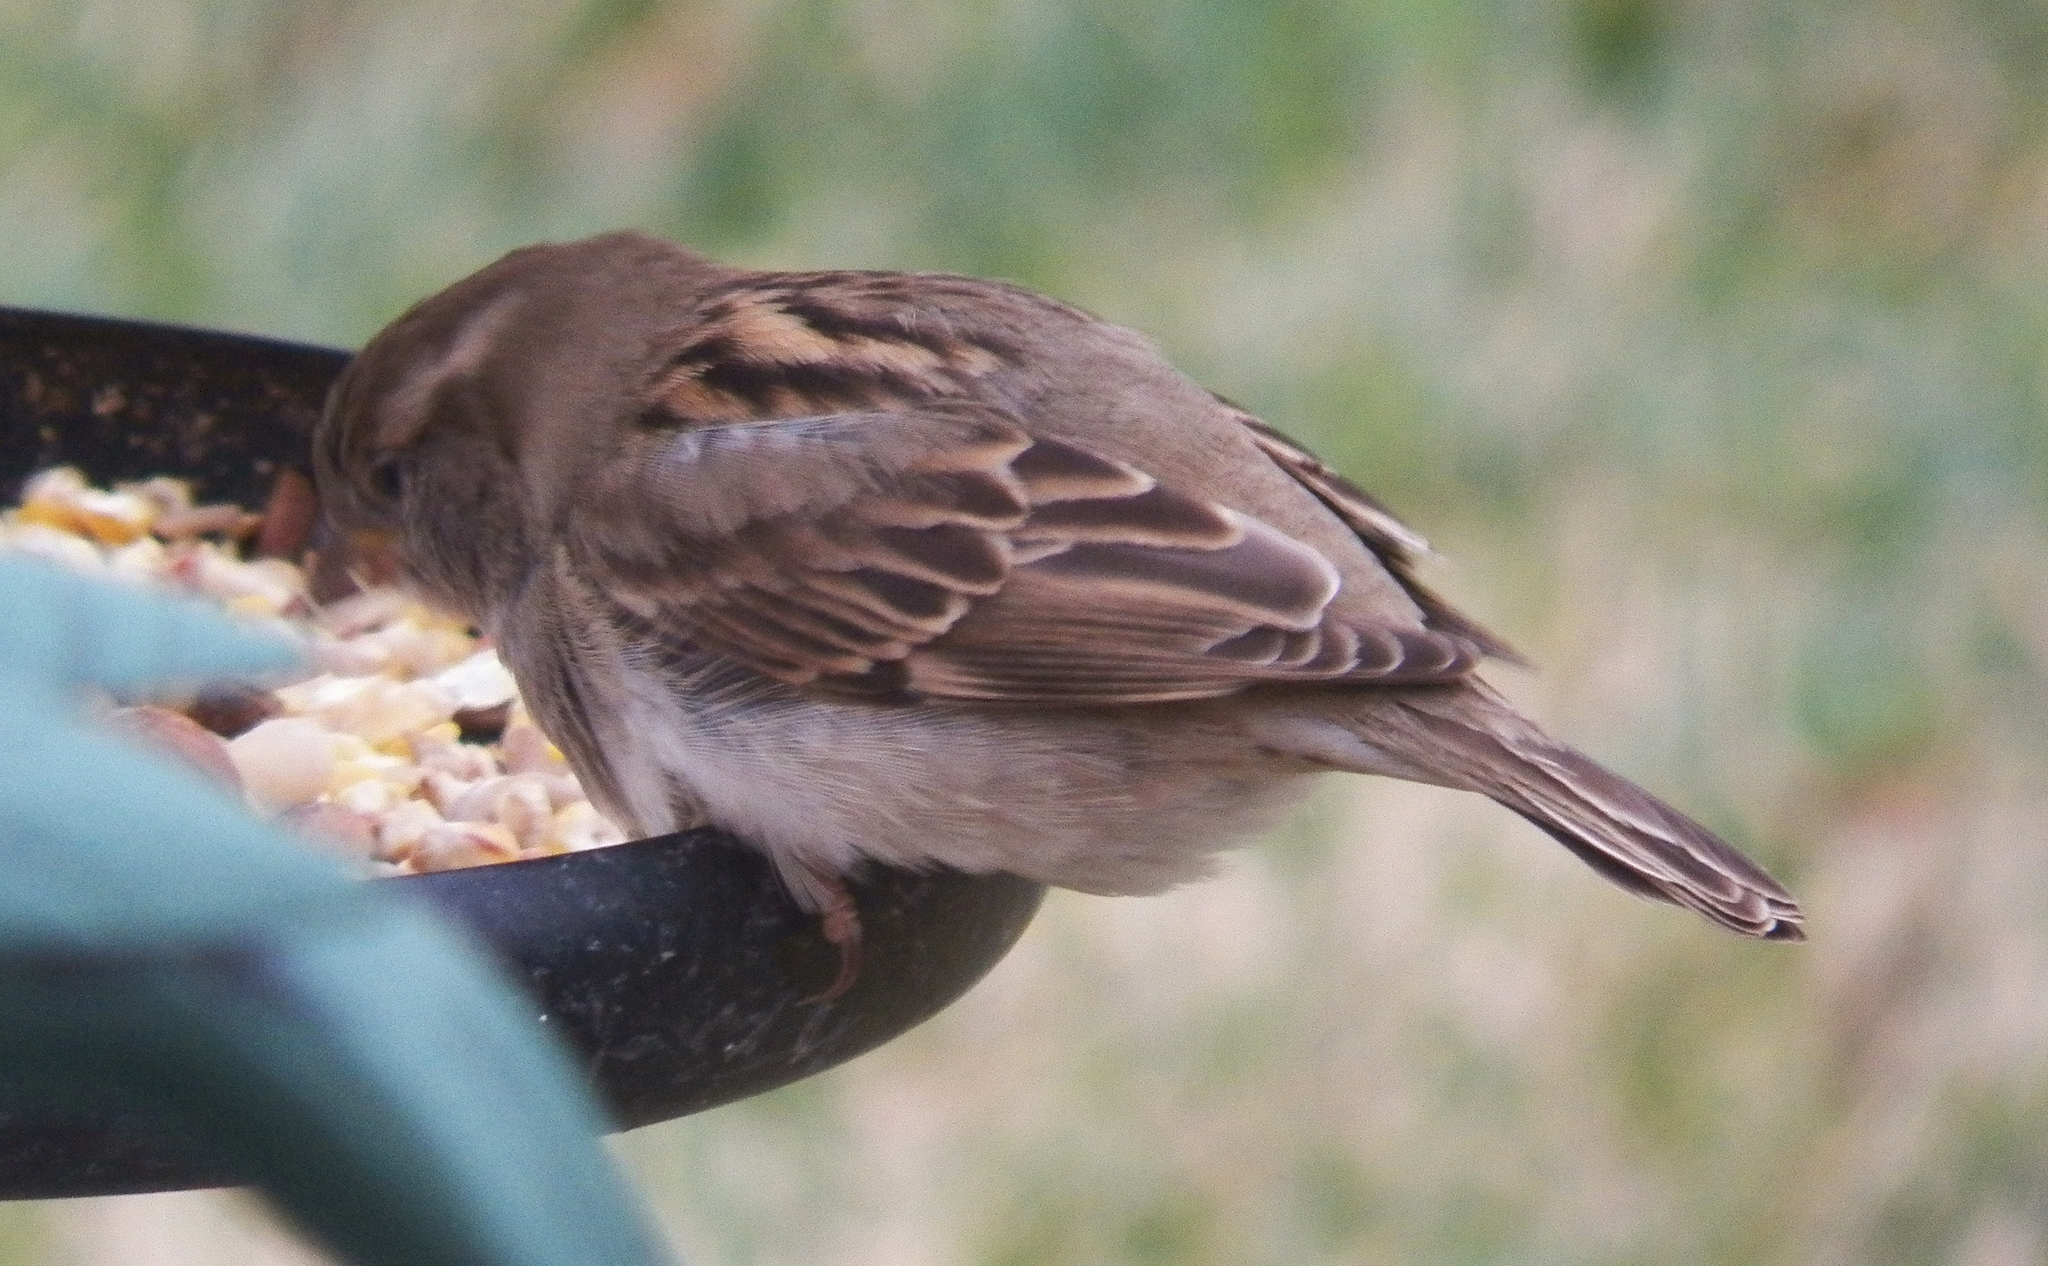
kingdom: Animalia
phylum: Chordata
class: Aves
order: Passeriformes
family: Passeridae
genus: Passer
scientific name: Passer domesticus
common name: House sparrow
